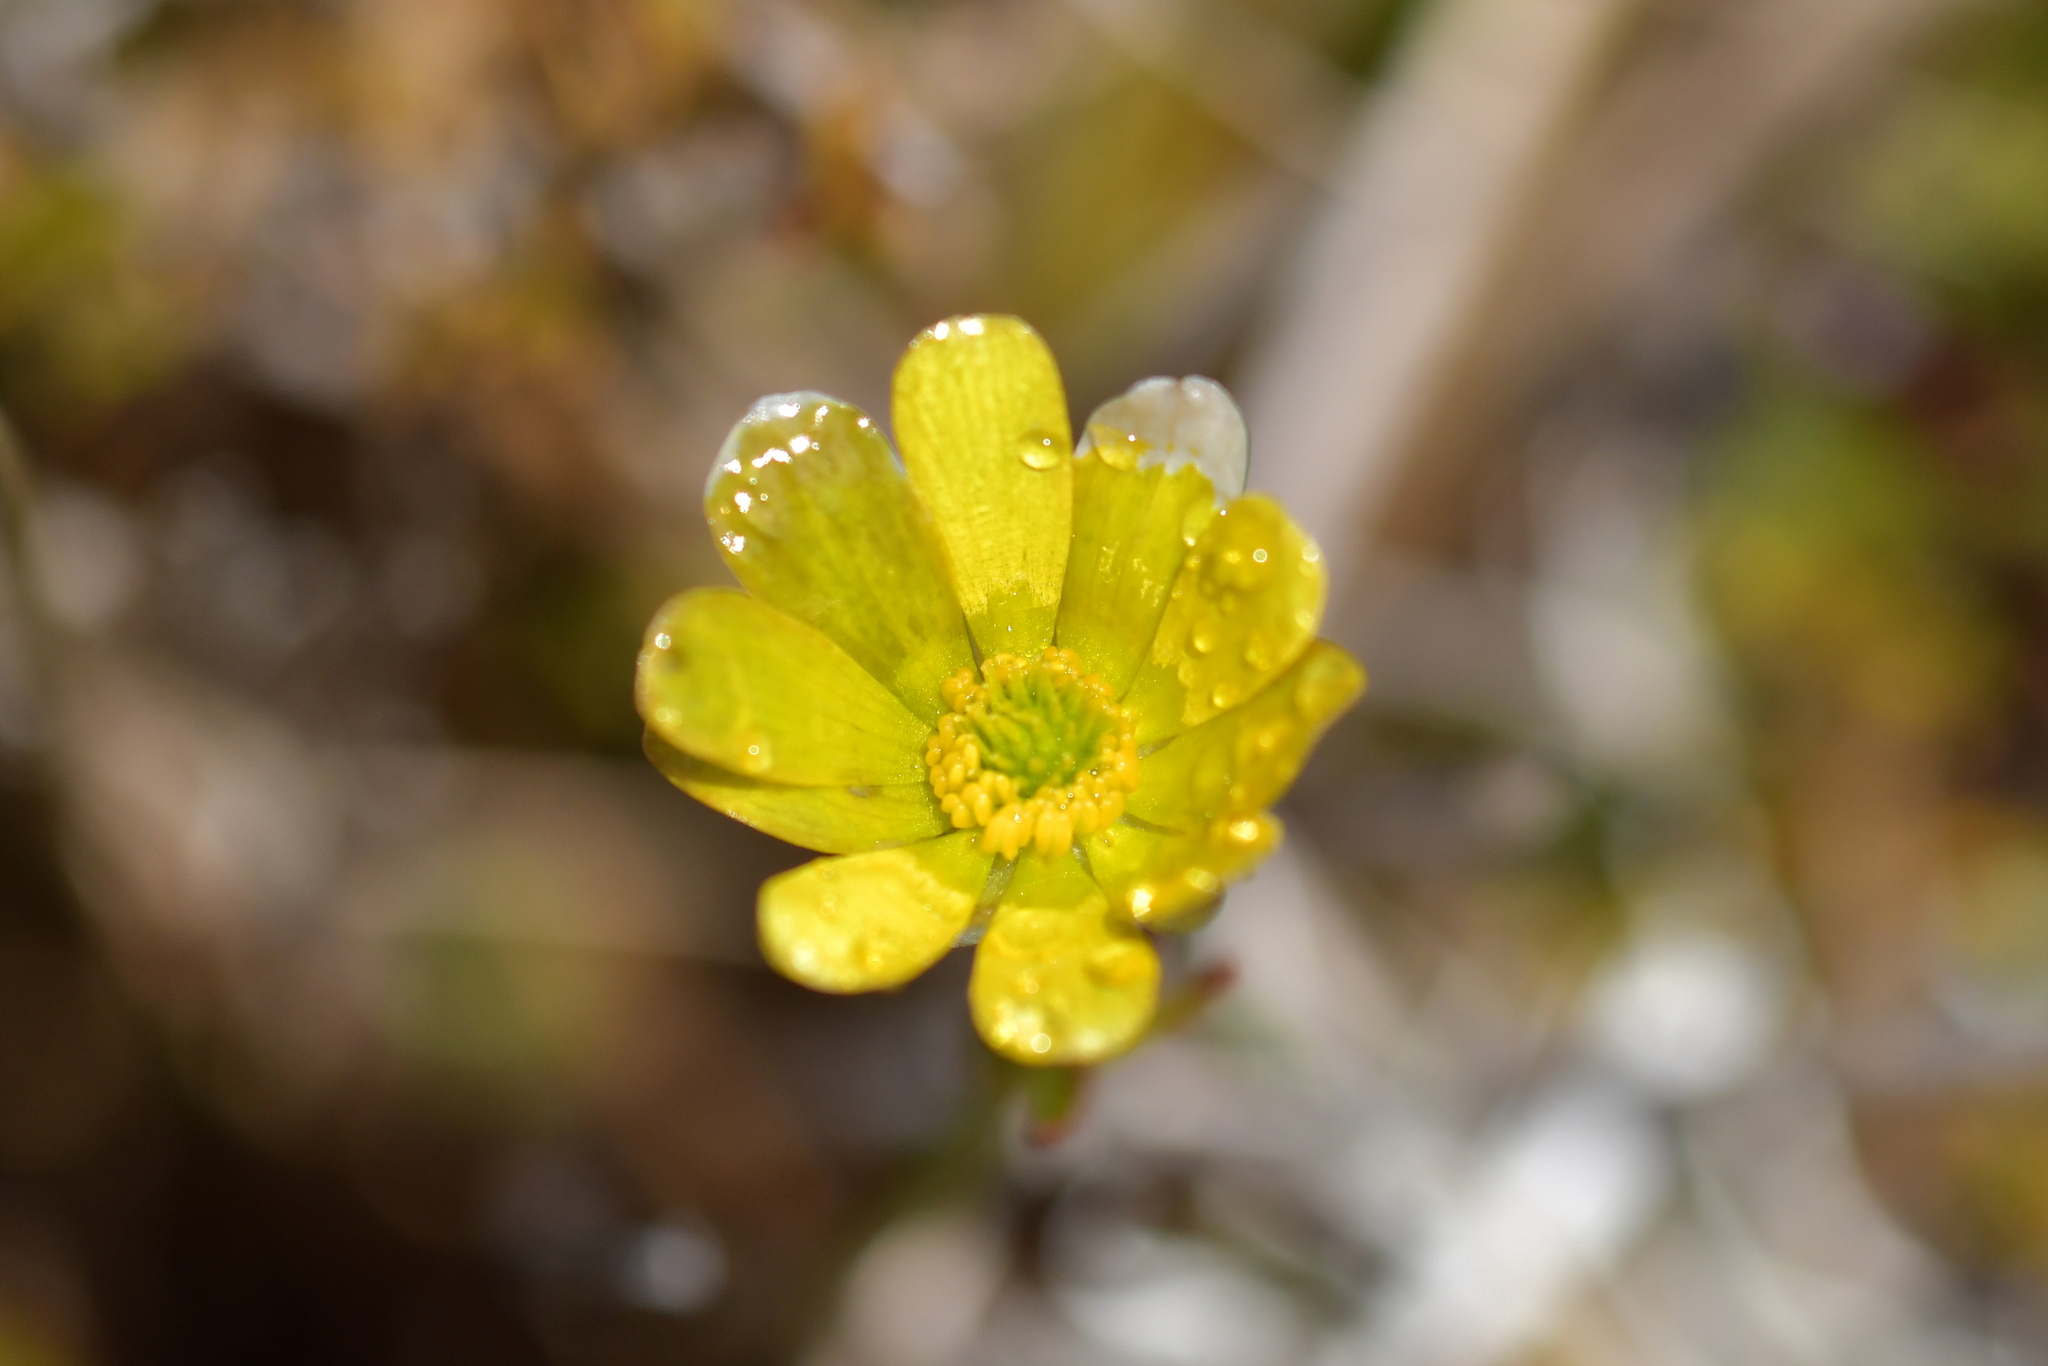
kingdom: Plantae
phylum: Tracheophyta
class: Magnoliopsida
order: Ranunculales
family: Ranunculaceae
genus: Ranunculus
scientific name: Ranunculus verticillatus
